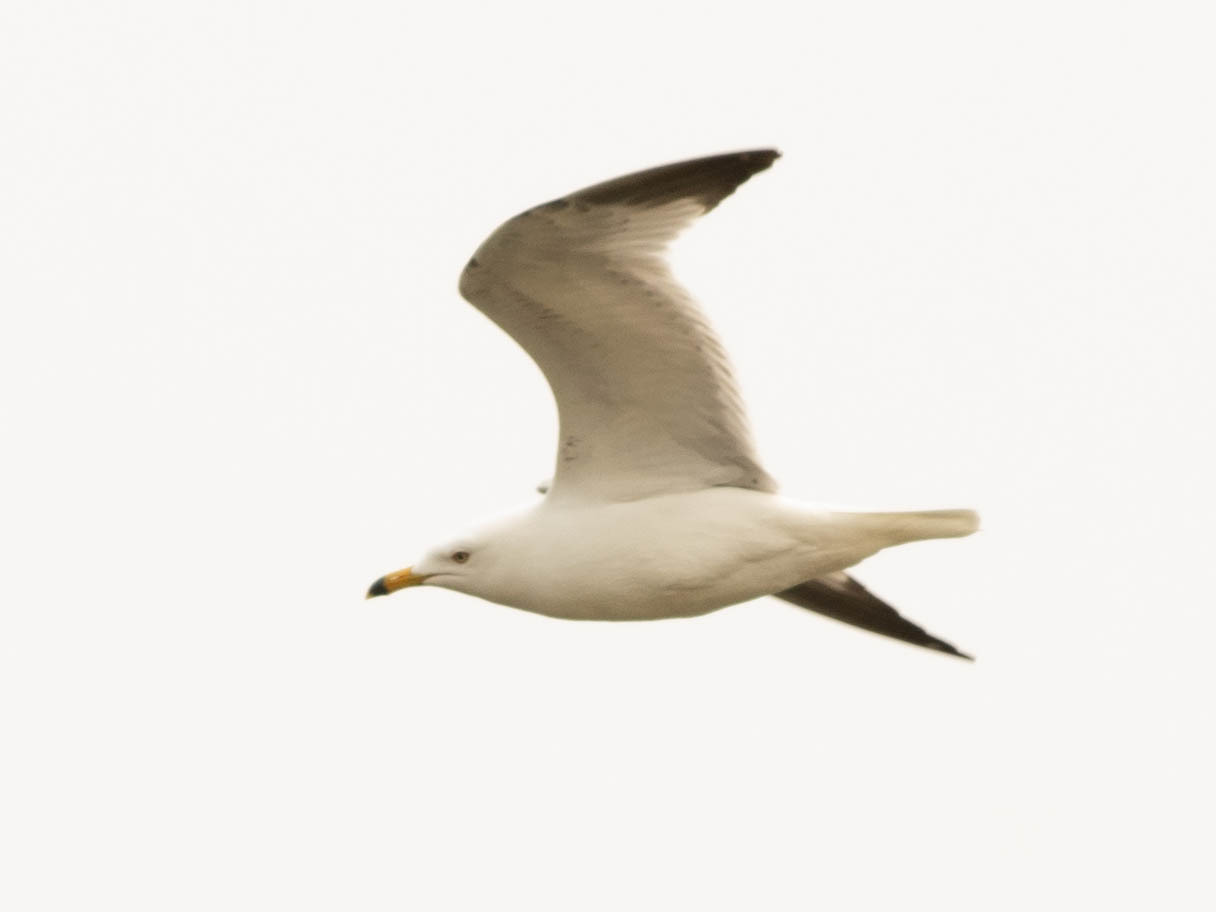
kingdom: Animalia
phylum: Chordata
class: Aves
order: Charadriiformes
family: Laridae
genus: Larus
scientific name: Larus delawarensis
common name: Ring-billed gull
